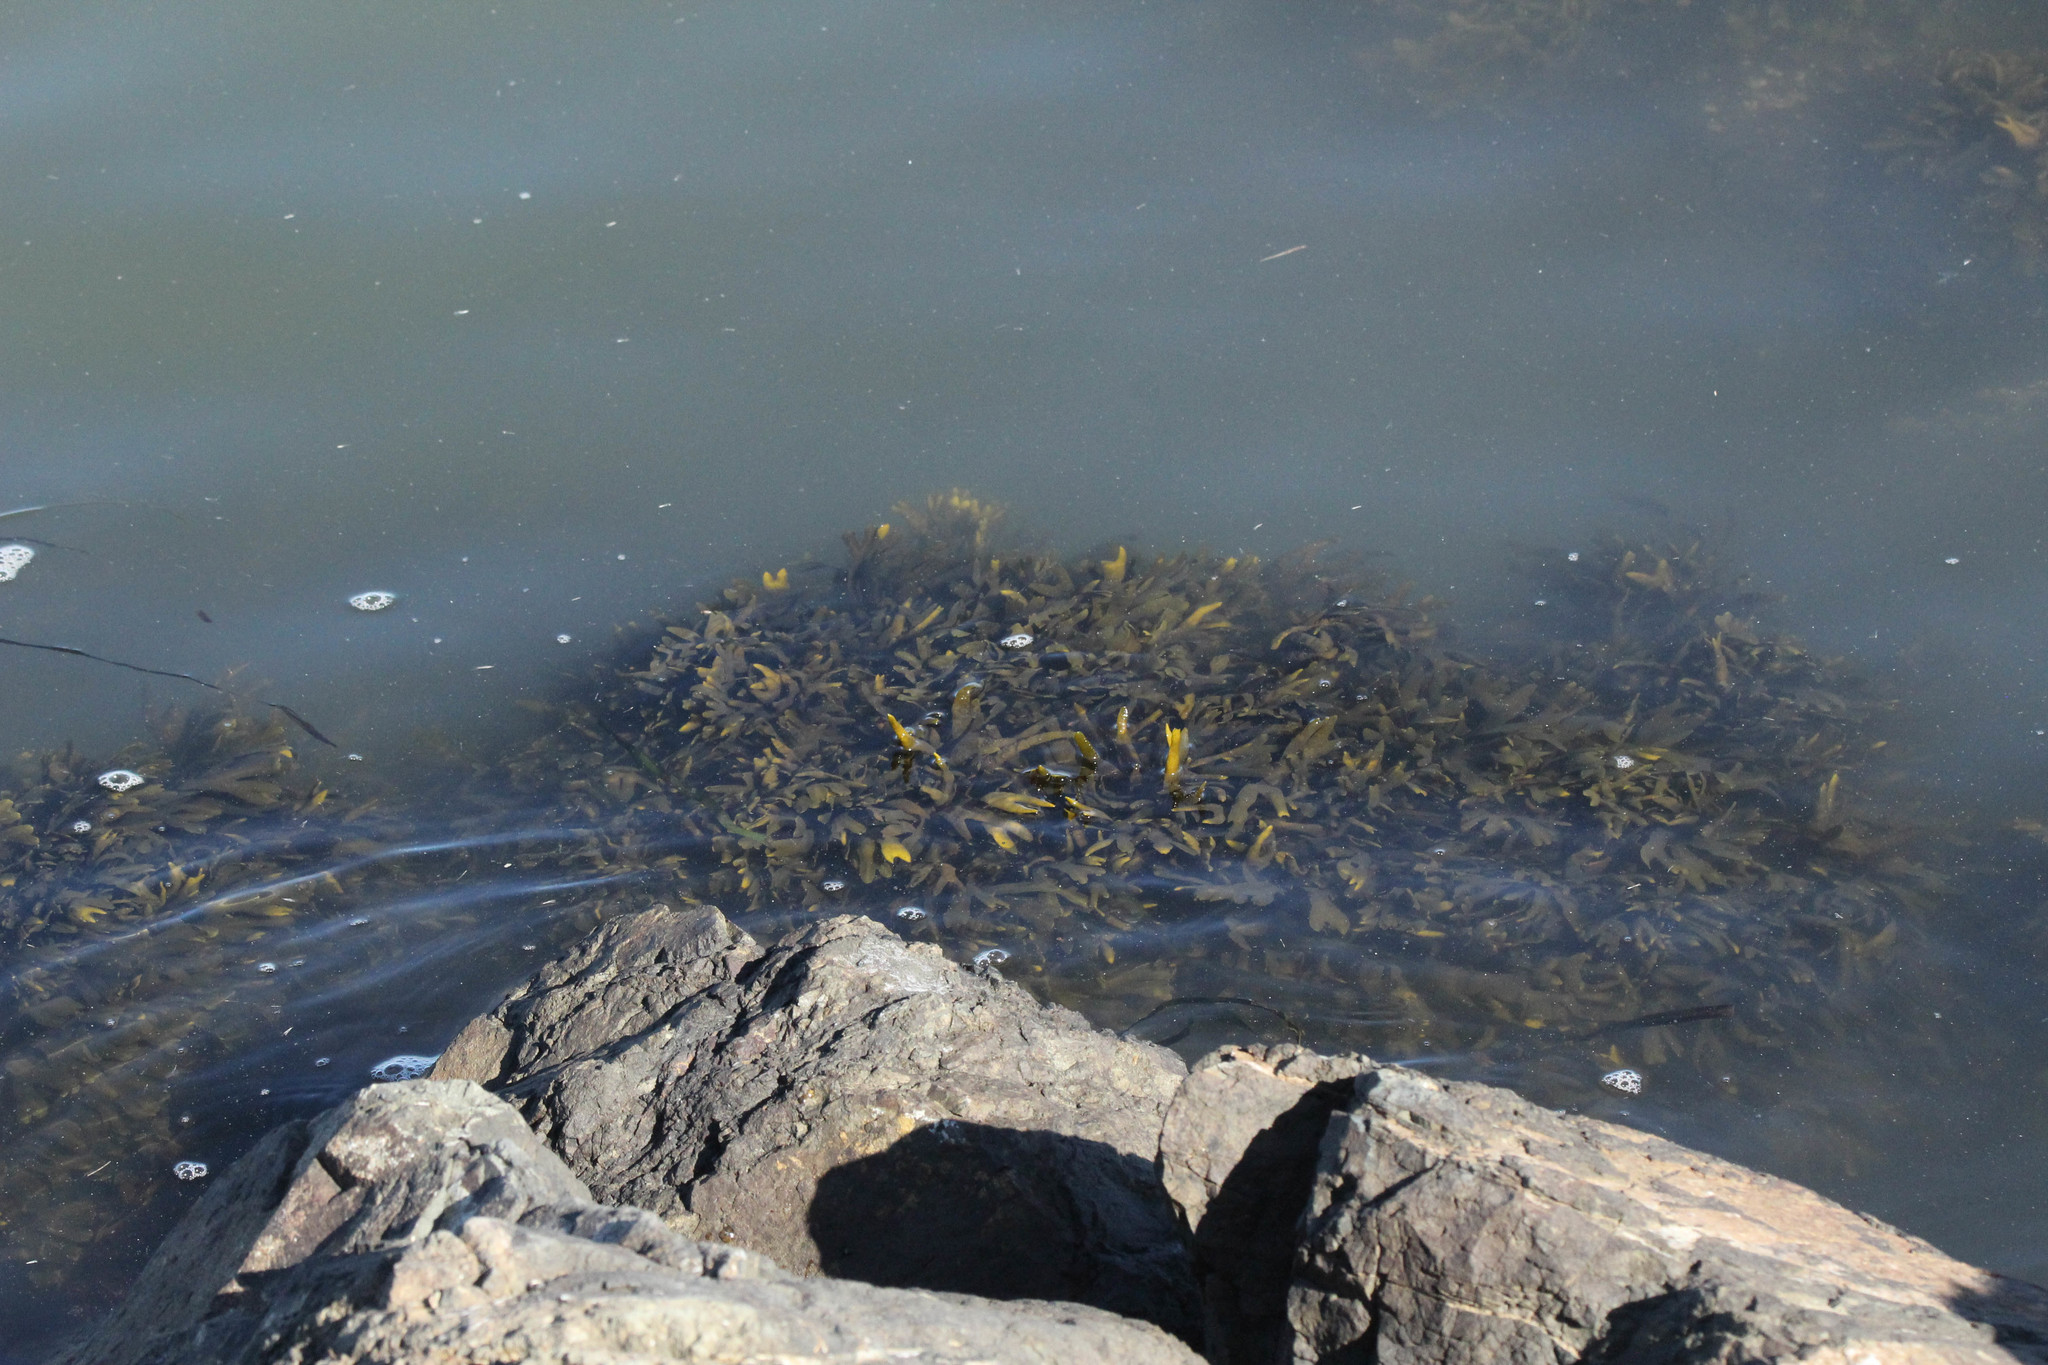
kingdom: Chromista
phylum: Ochrophyta
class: Phaeophyceae
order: Fucales
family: Fucaceae
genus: Fucus
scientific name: Fucus distichus
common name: Rockweed
